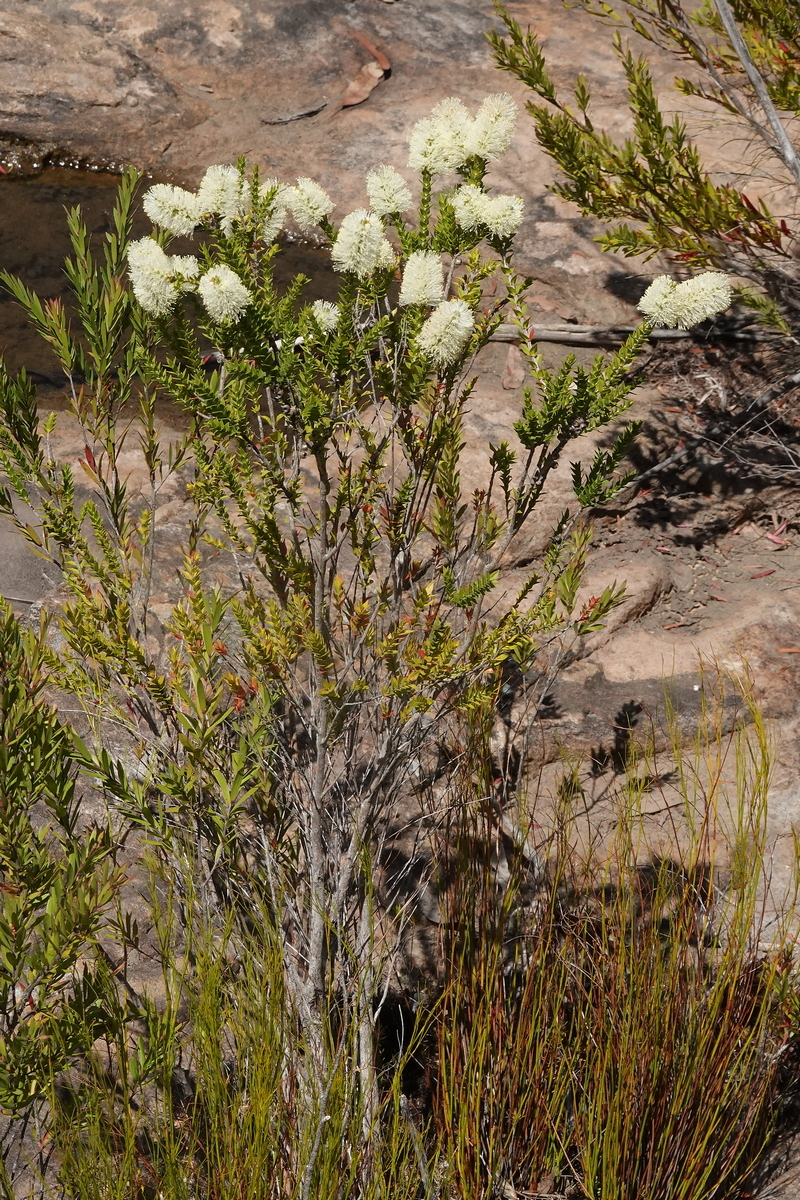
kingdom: Plantae
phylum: Tracheophyta
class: Magnoliopsida
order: Myrtales
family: Myrtaceae
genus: Melaleuca
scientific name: Melaleuca squarrosa
